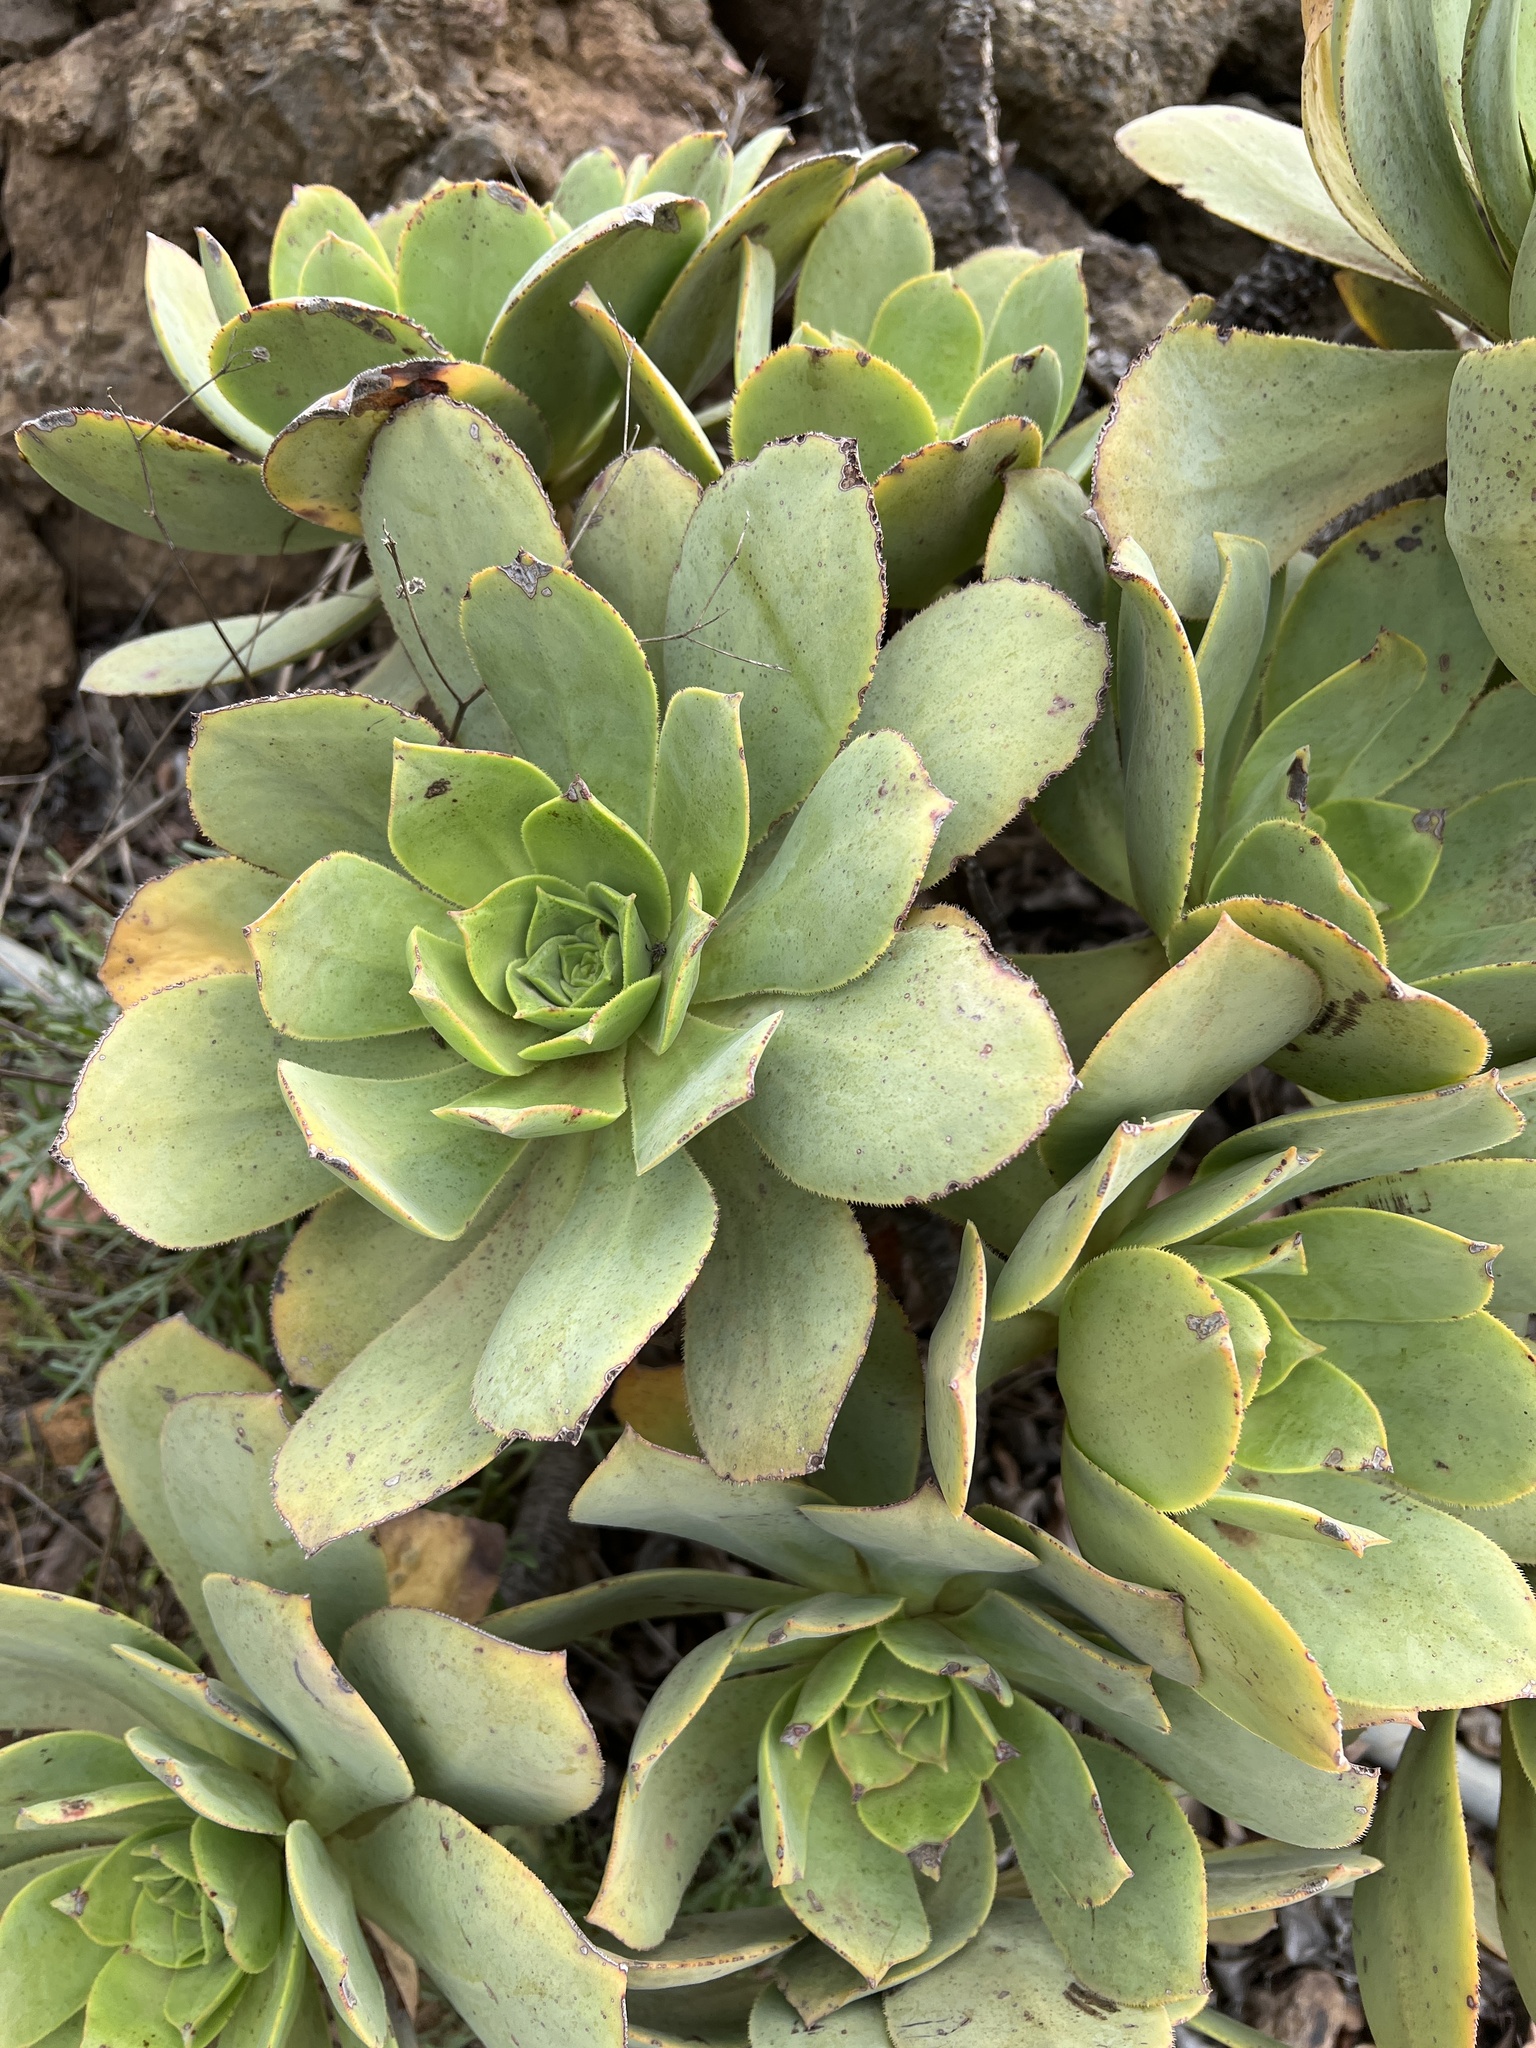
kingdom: Plantae
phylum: Tracheophyta
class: Magnoliopsida
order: Saxifragales
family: Crassulaceae
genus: Aeonium
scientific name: Aeonium valverdense
